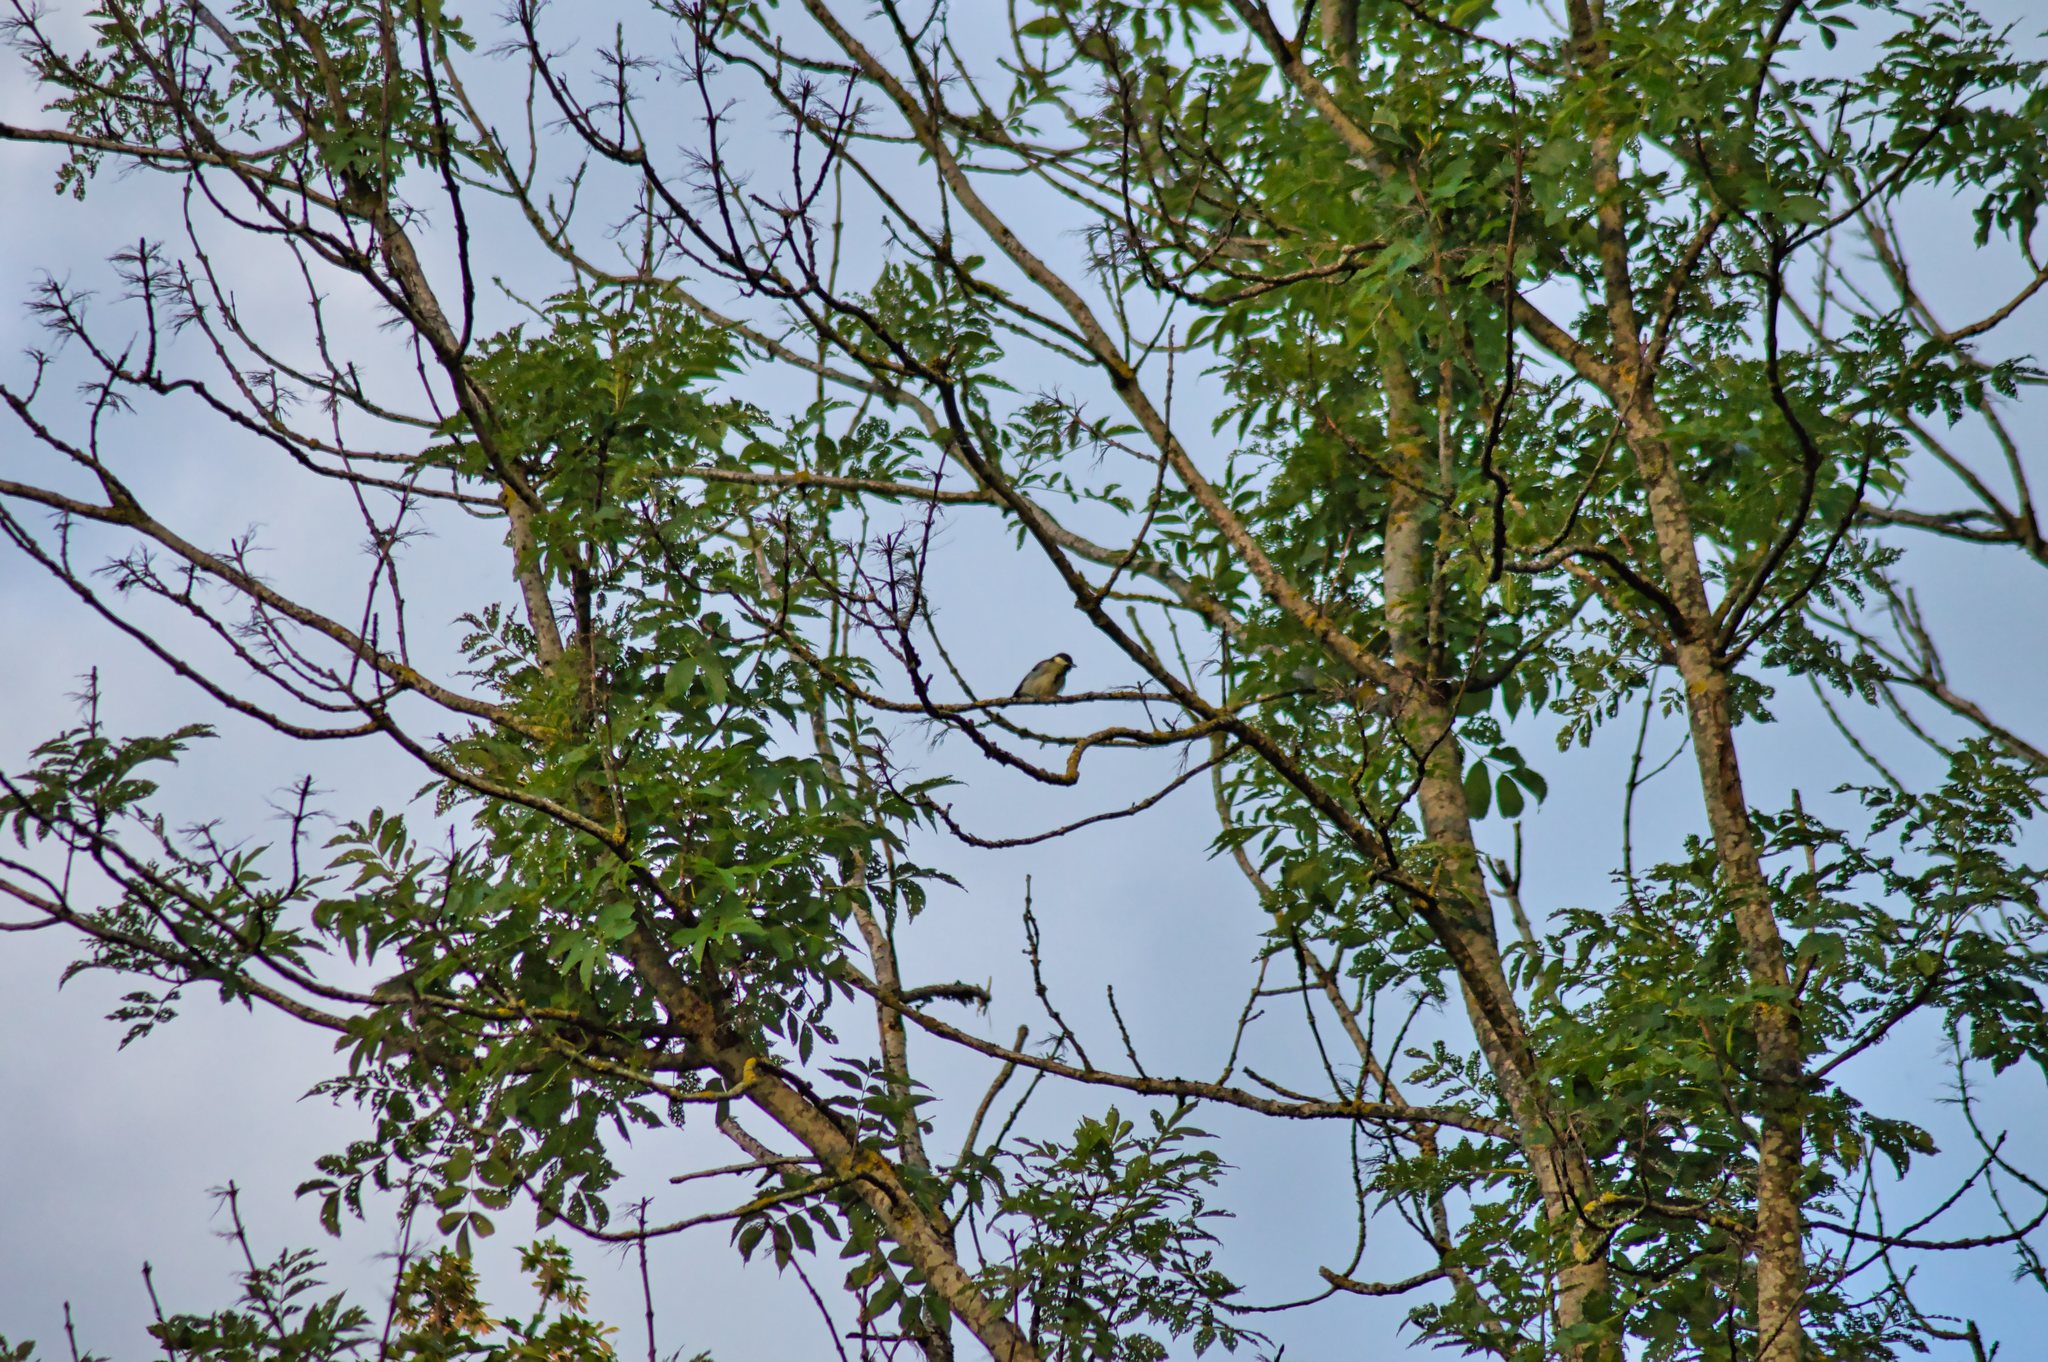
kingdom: Animalia
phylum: Chordata
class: Aves
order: Passeriformes
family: Paridae
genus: Parus
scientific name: Parus major
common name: Great tit
